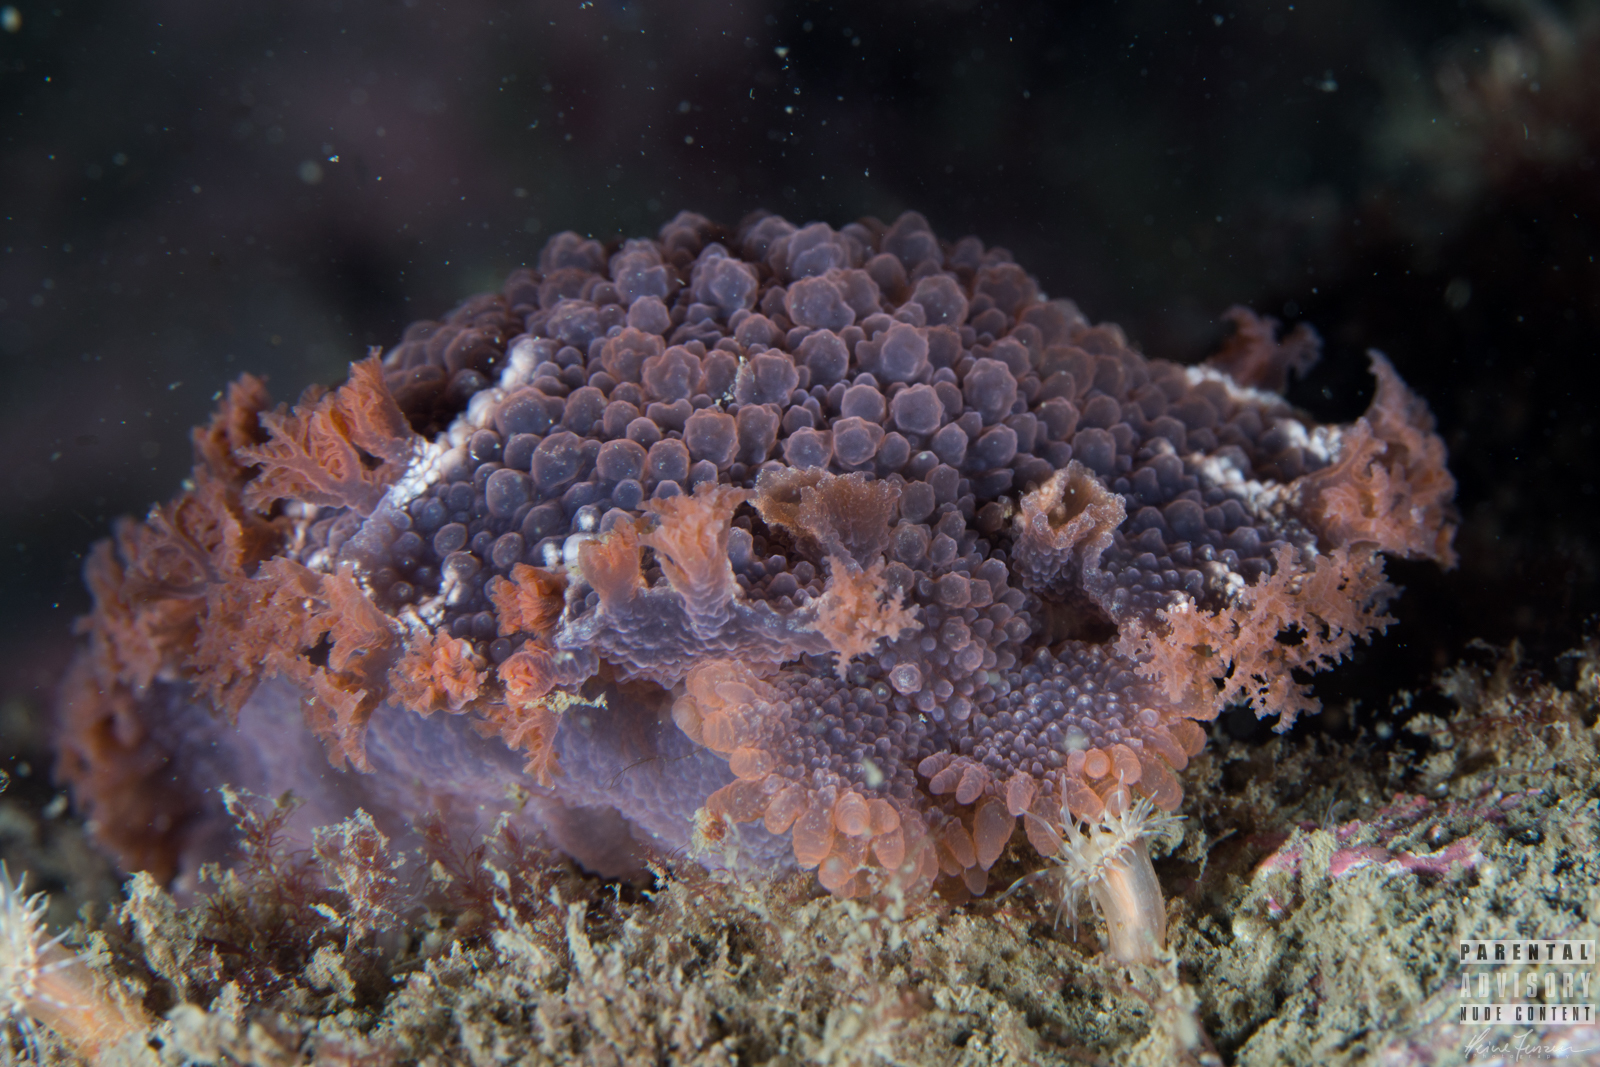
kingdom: Animalia
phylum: Mollusca
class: Gastropoda
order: Nudibranchia
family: Tritoniidae
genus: Tritonia
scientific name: Tritonia hombergii
